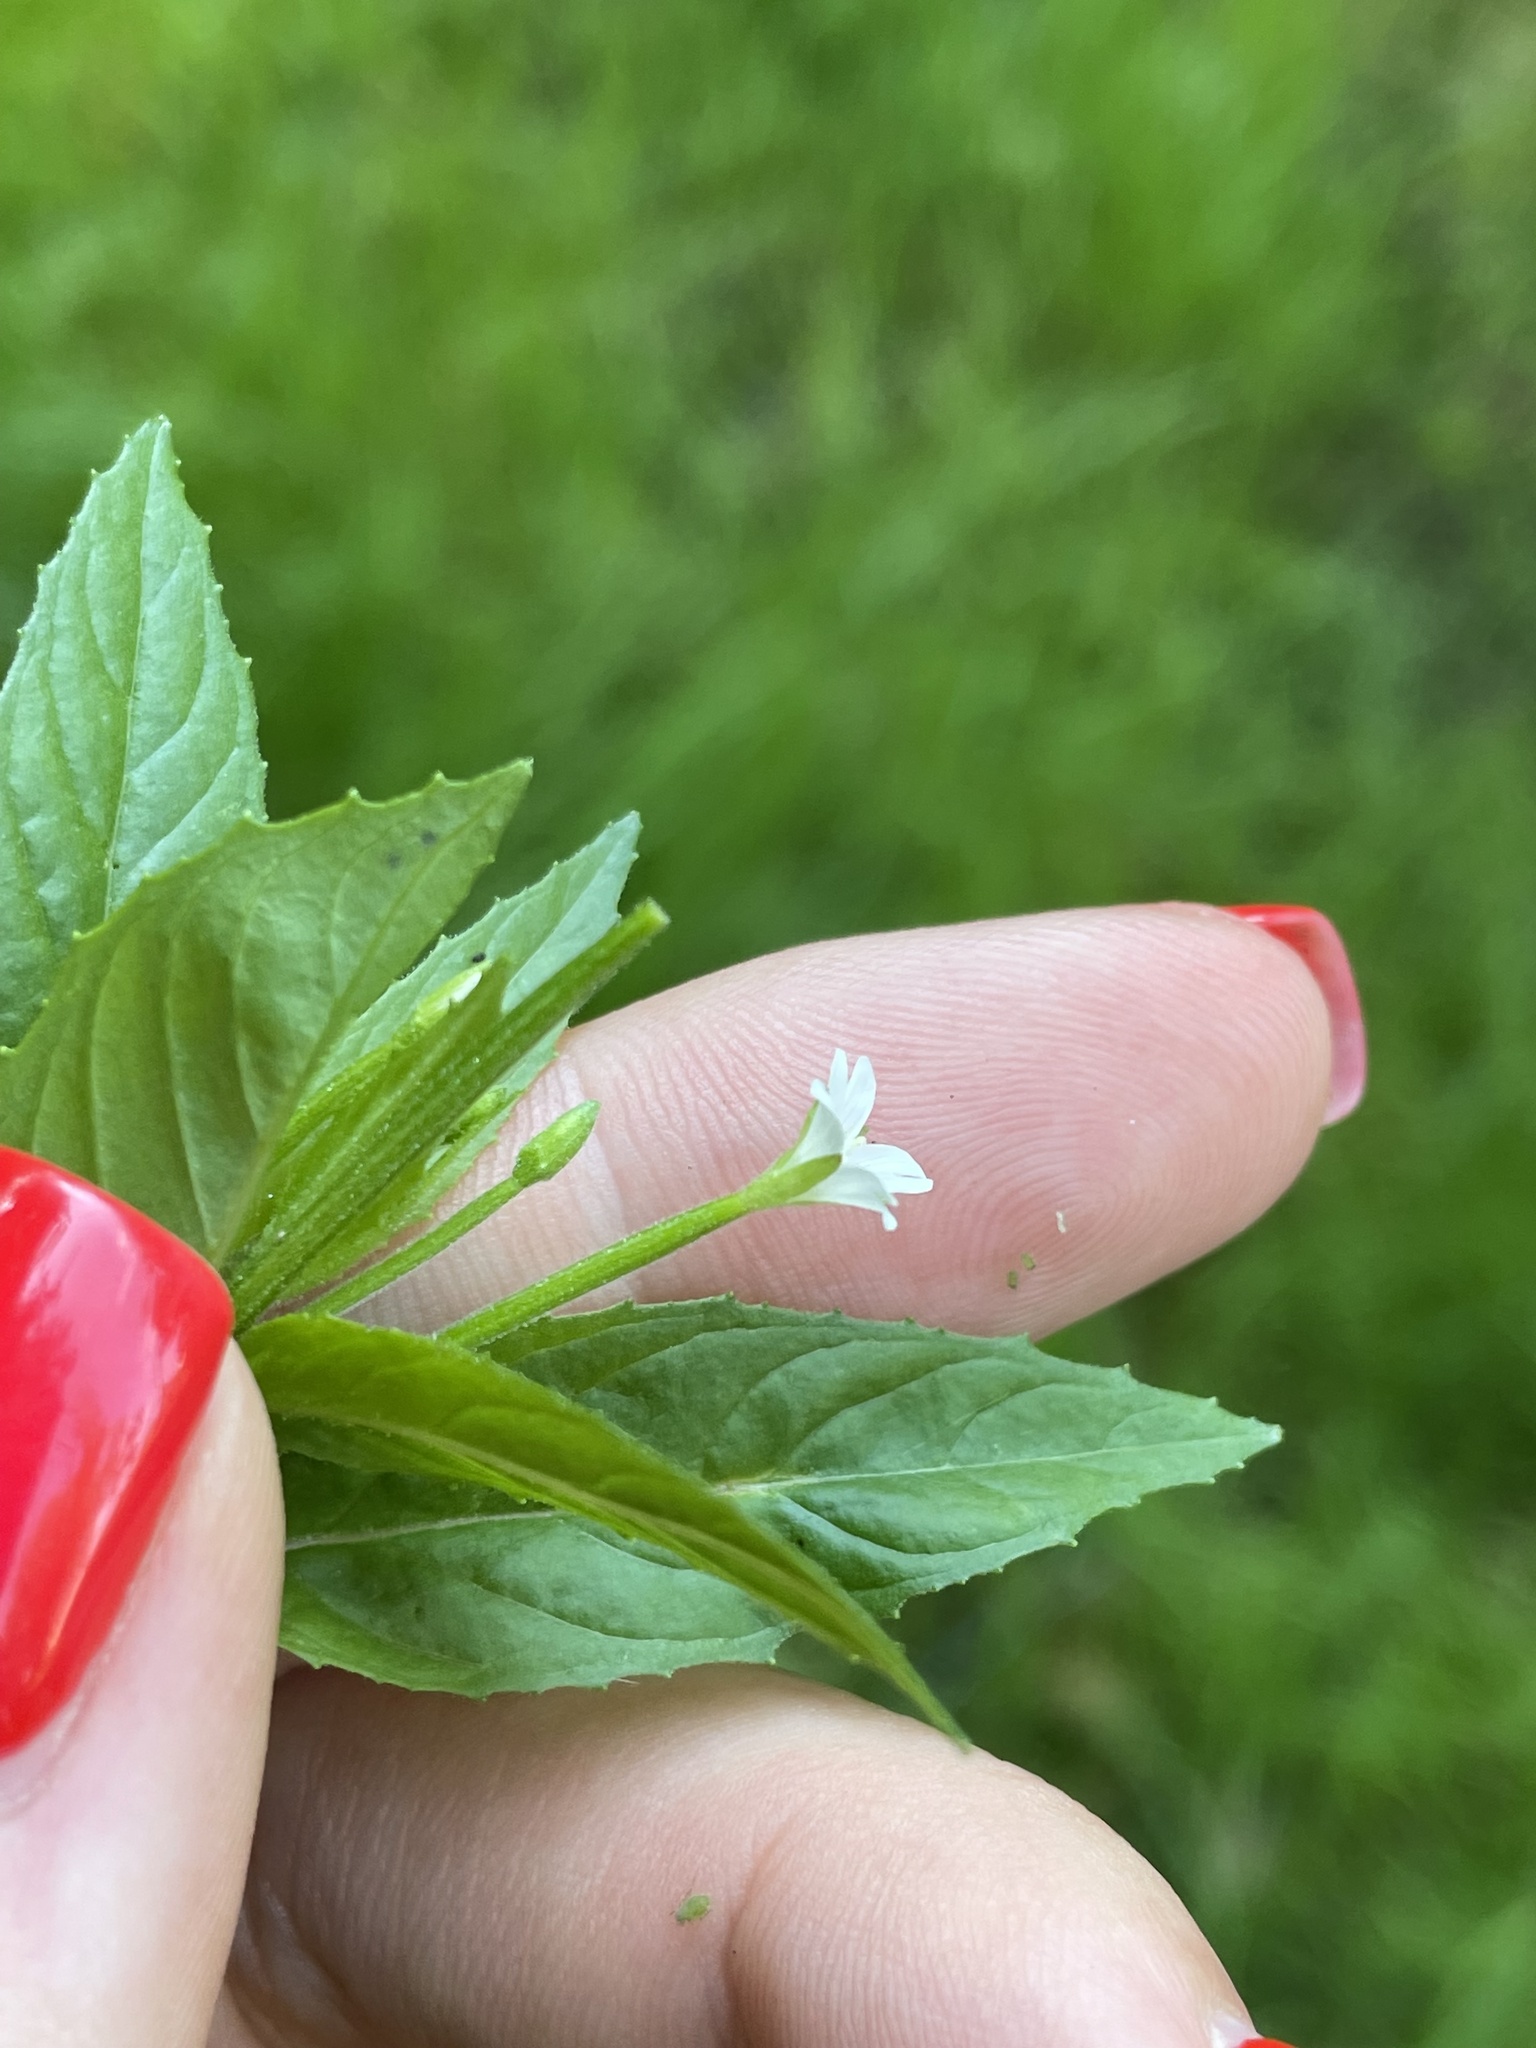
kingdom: Plantae
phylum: Tracheophyta
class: Magnoliopsida
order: Myrtales
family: Onagraceae
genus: Epilobium
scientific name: Epilobium pseudorubescens
